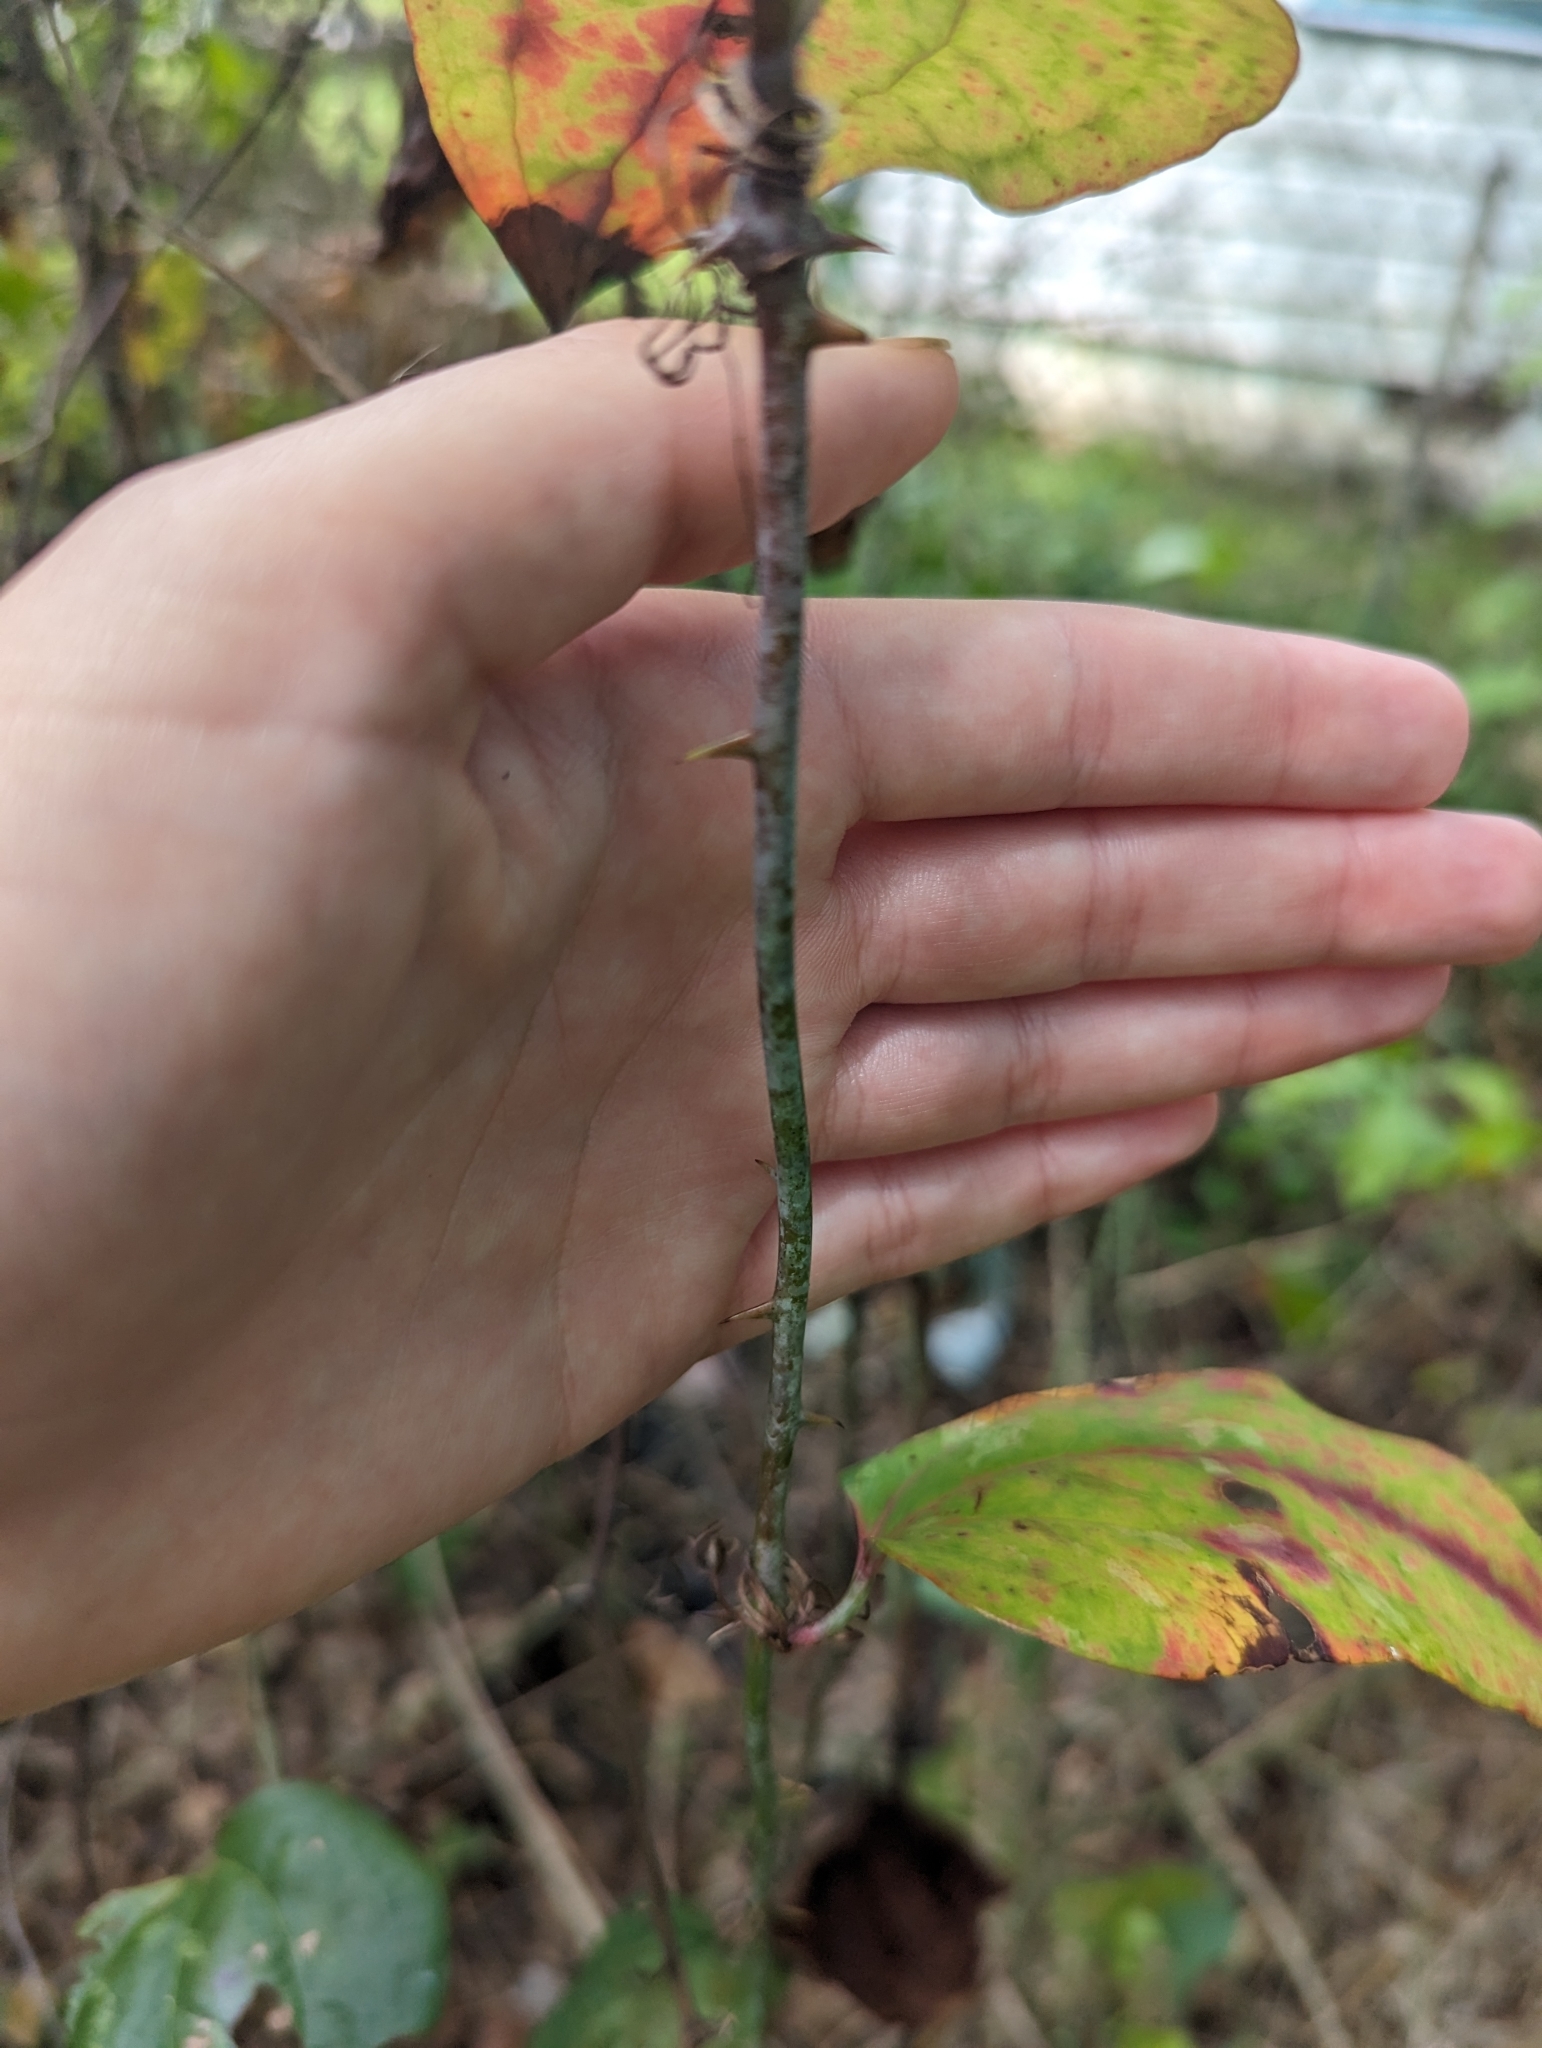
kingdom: Plantae
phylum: Tracheophyta
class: Liliopsida
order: Liliales
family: Smilacaceae
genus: Smilax
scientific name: Smilax glauca
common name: Cat greenbrier
